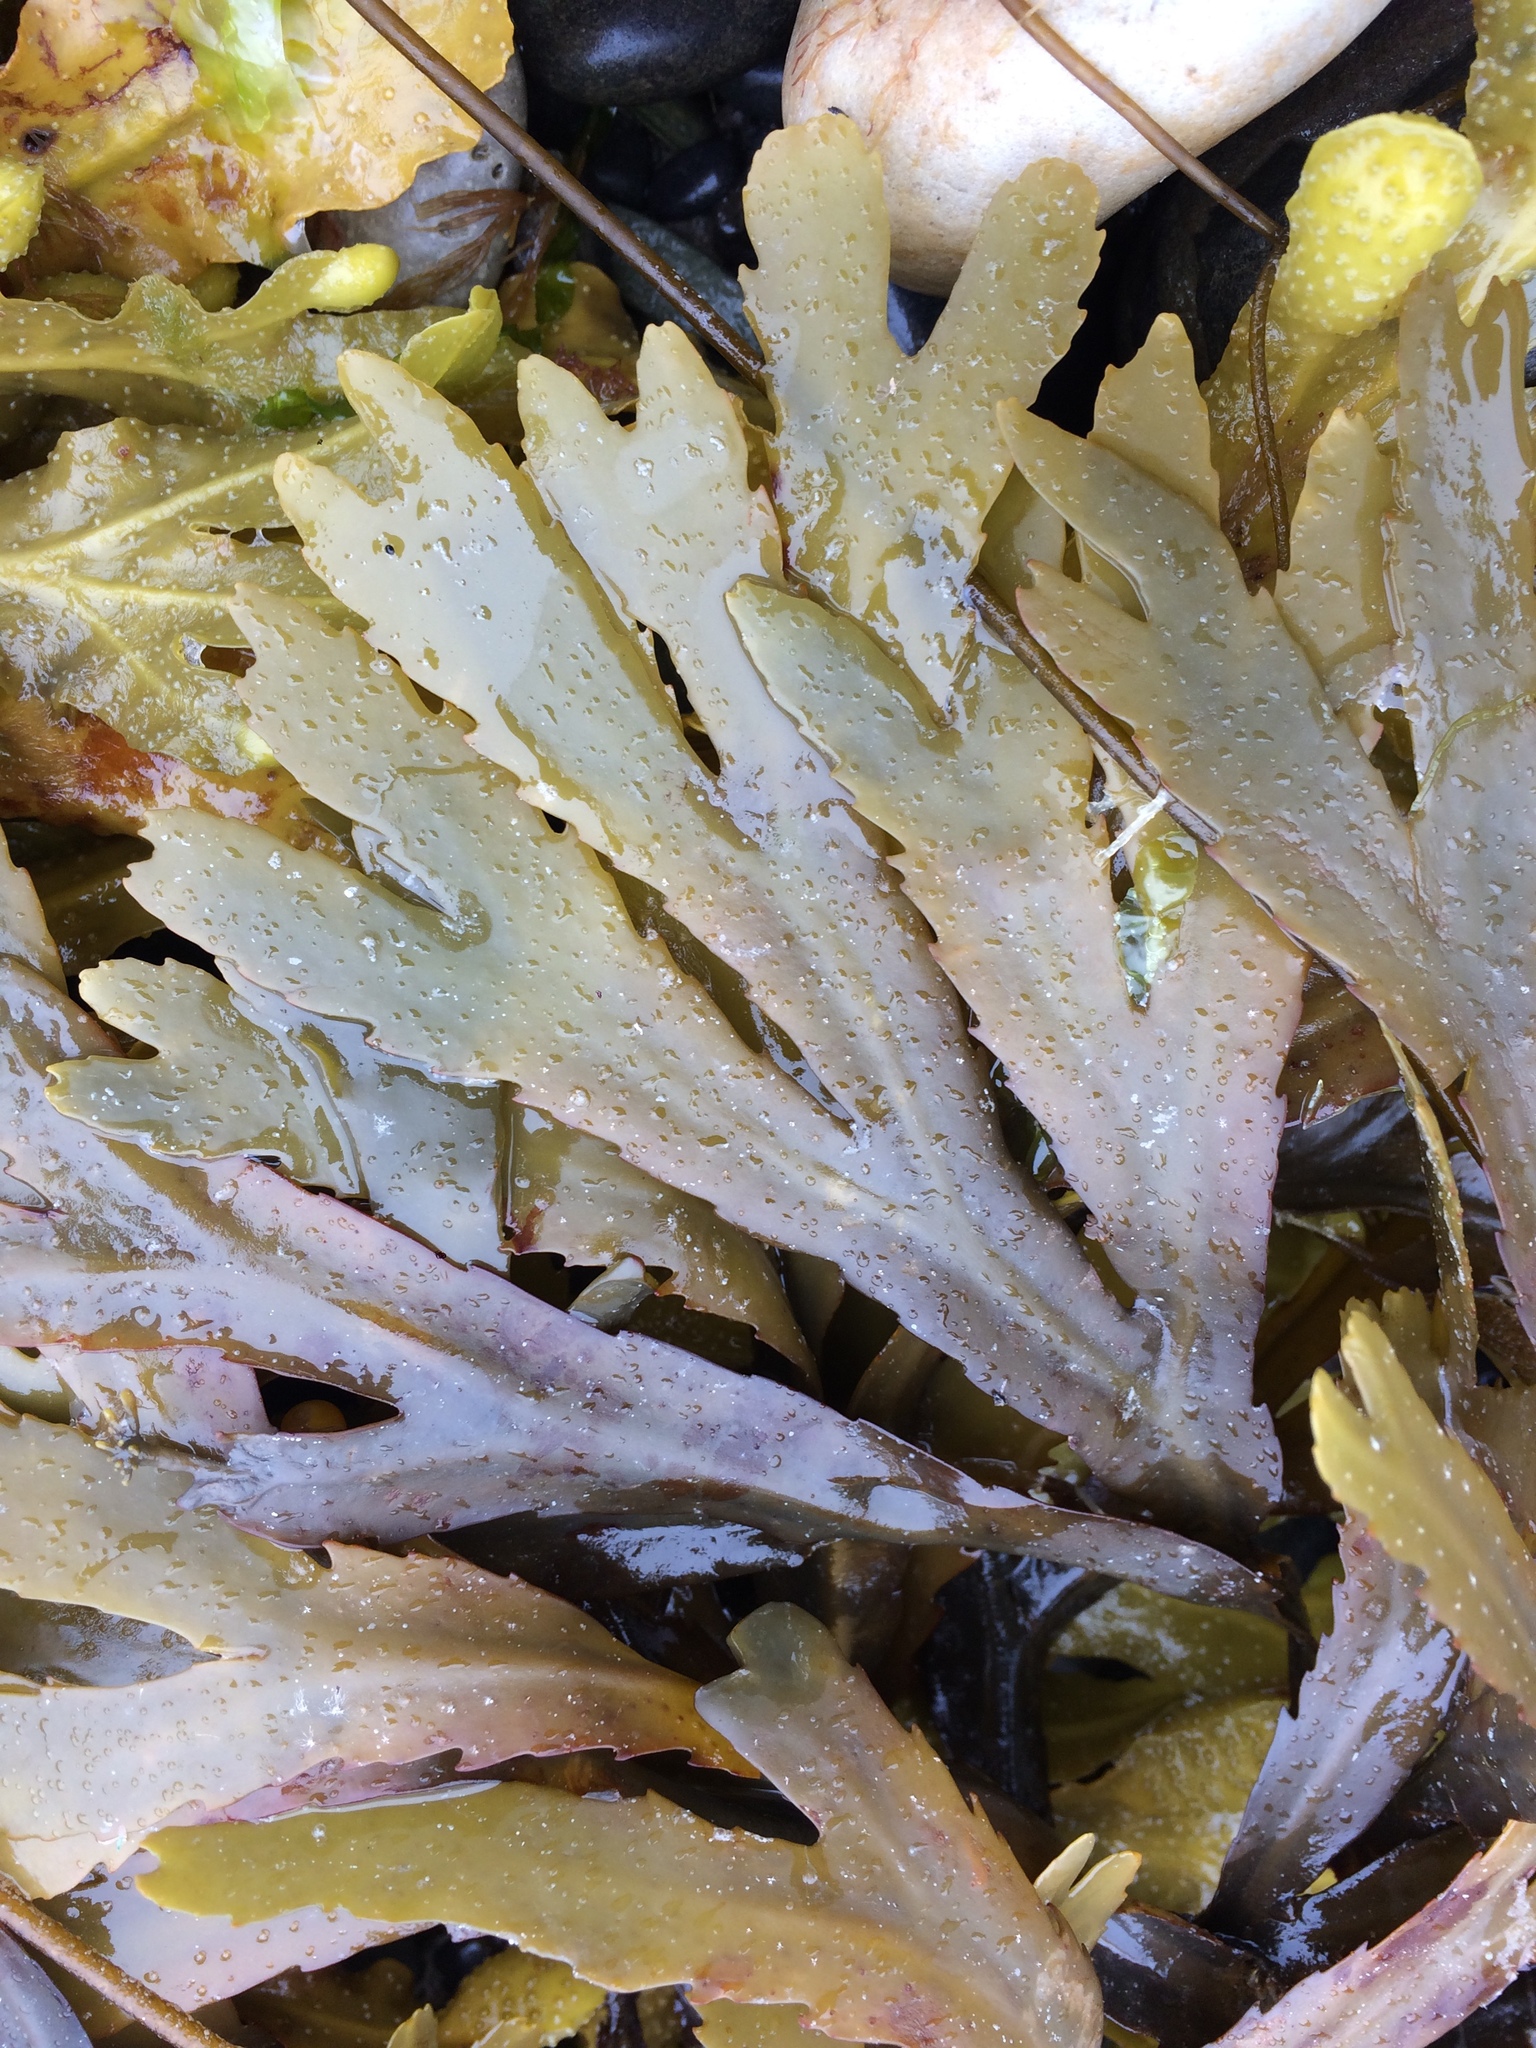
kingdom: Chromista
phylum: Ochrophyta
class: Phaeophyceae
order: Fucales
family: Fucaceae
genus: Fucus
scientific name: Fucus serratus
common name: Toothed wrack
